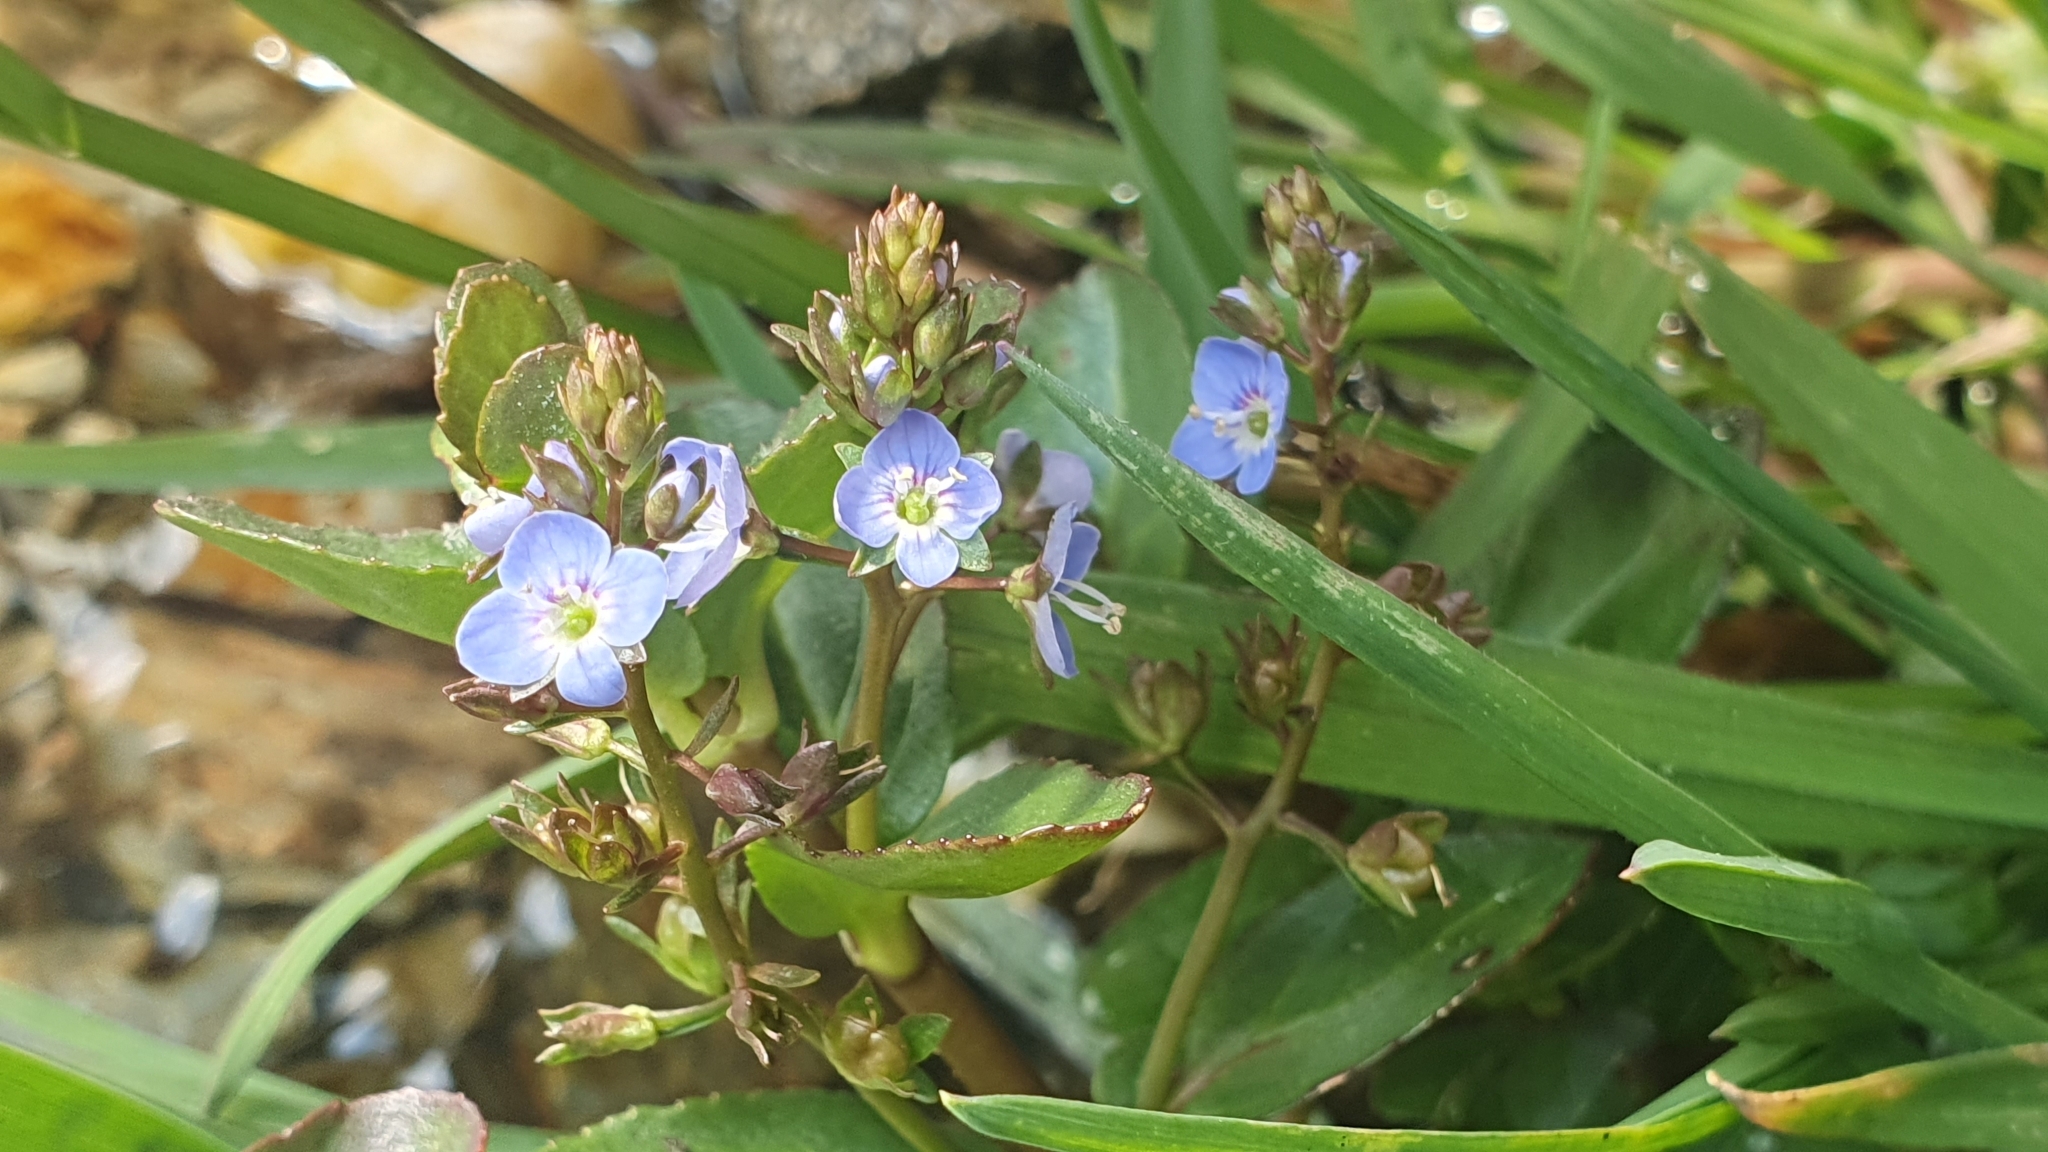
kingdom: Plantae
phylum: Tracheophyta
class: Magnoliopsida
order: Lamiales
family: Plantaginaceae
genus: Veronica
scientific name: Veronica beccabunga
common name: Brooklime
